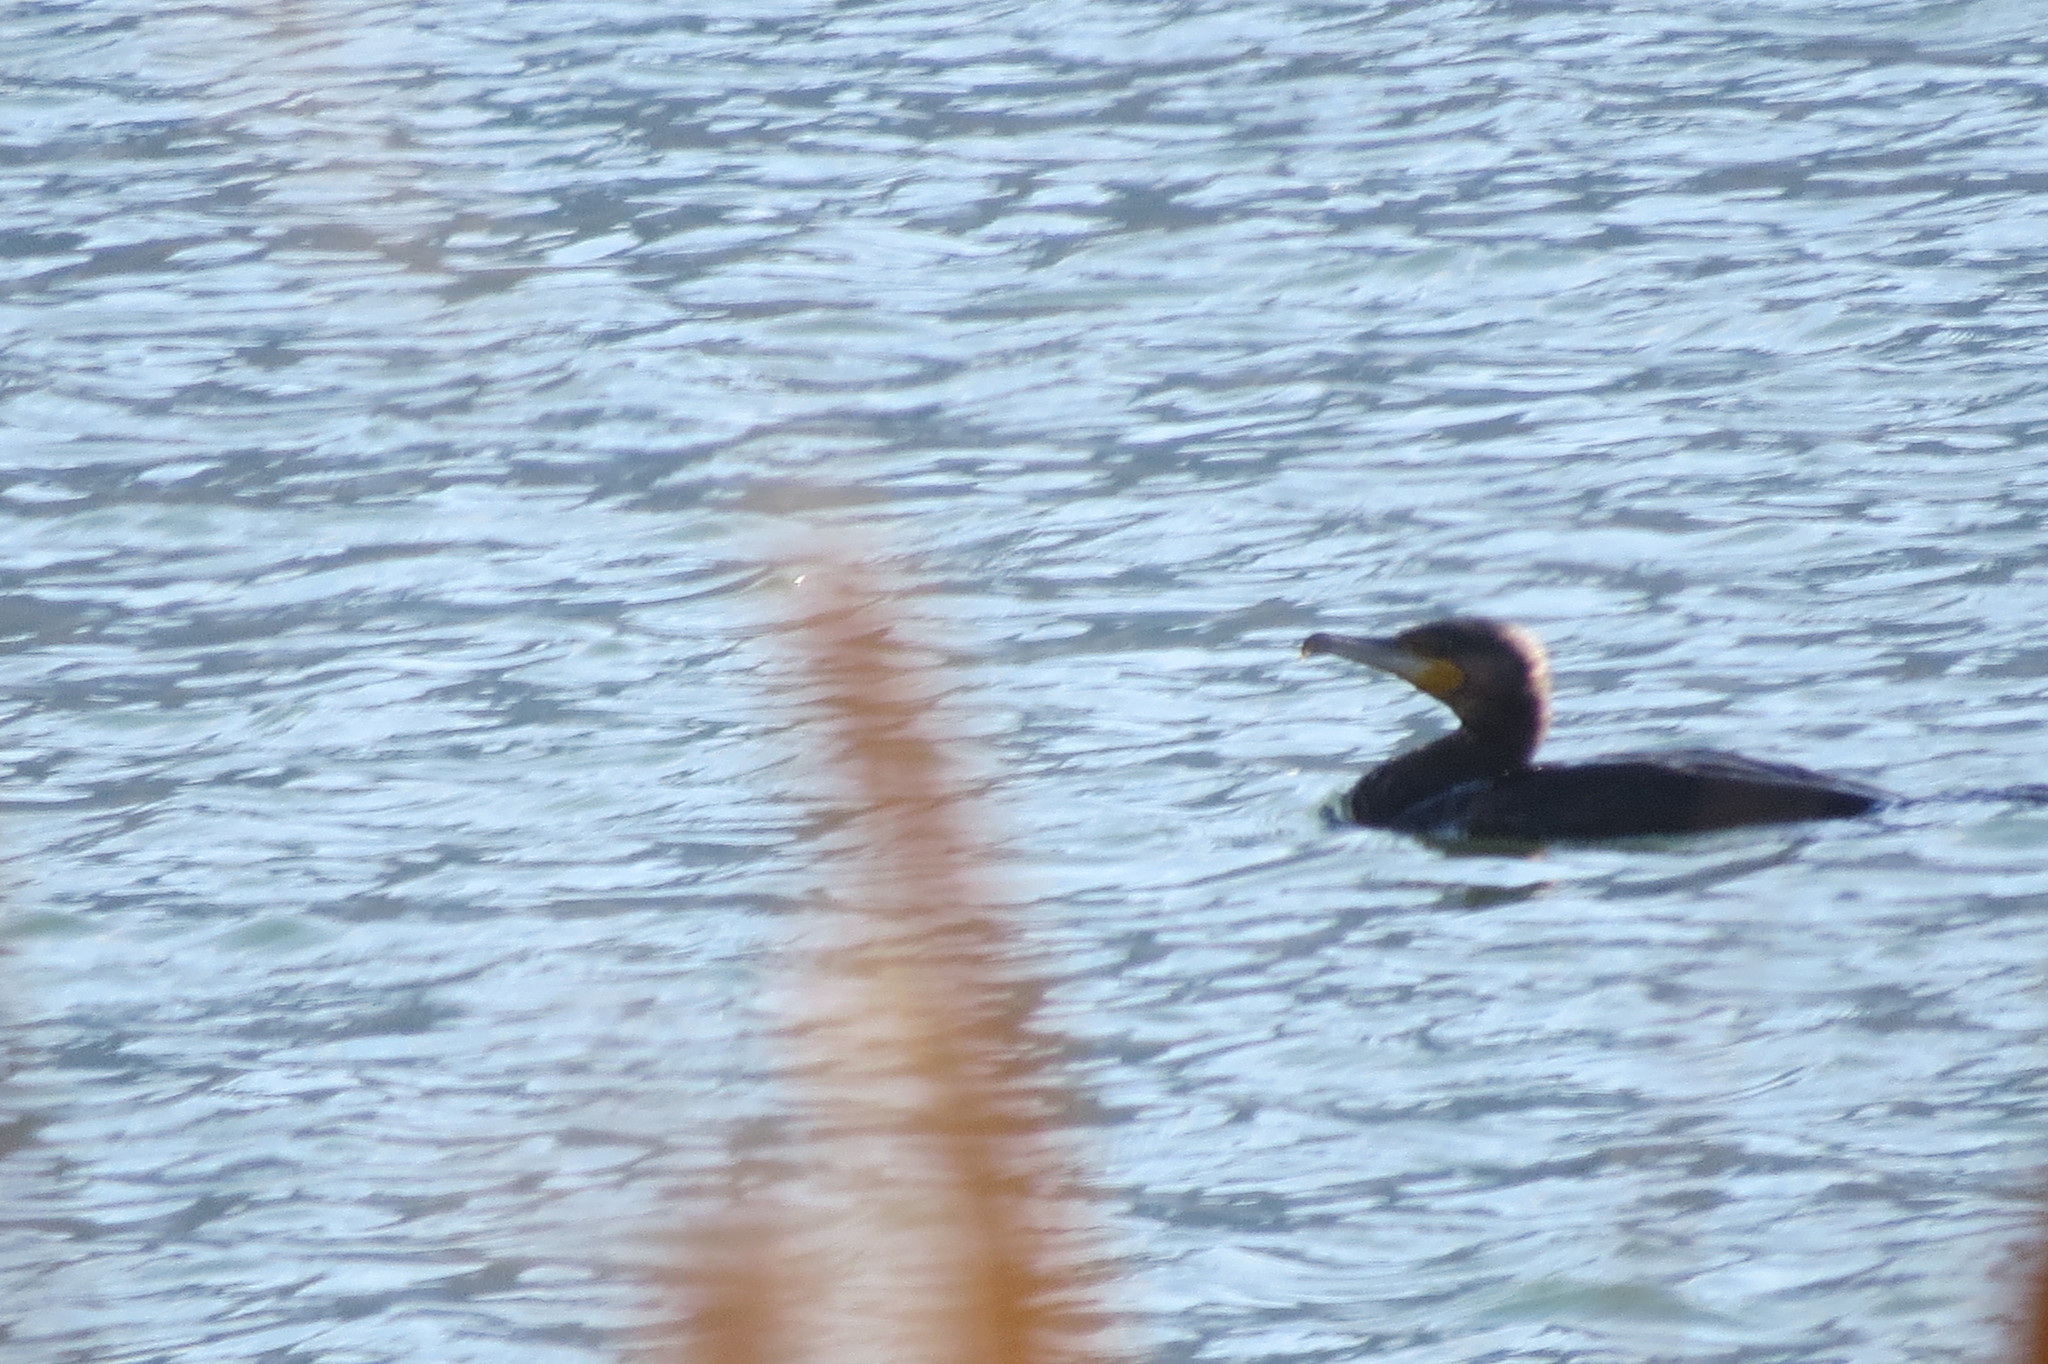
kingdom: Animalia
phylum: Chordata
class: Aves
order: Suliformes
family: Phalacrocoracidae
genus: Phalacrocorax
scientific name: Phalacrocorax carbo
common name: Great cormorant
